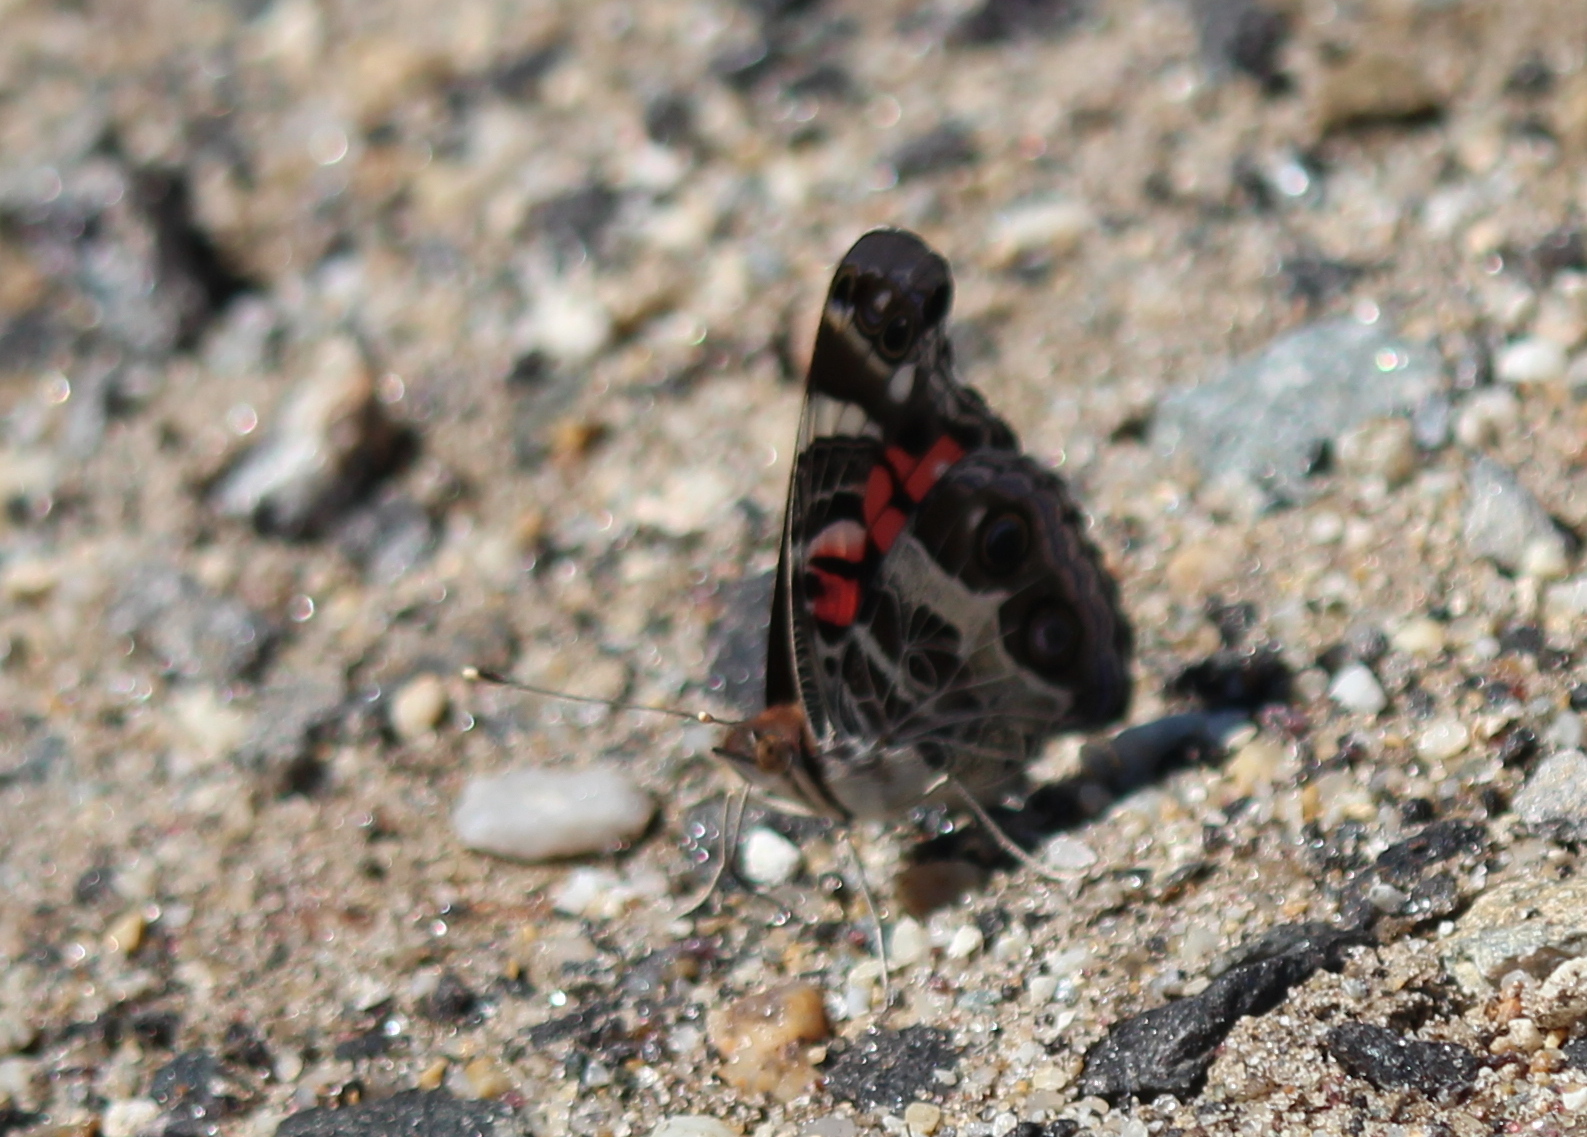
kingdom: Animalia
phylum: Arthropoda
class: Insecta
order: Lepidoptera
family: Nymphalidae
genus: Vanessa
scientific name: Vanessa virginiensis
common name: American lady
